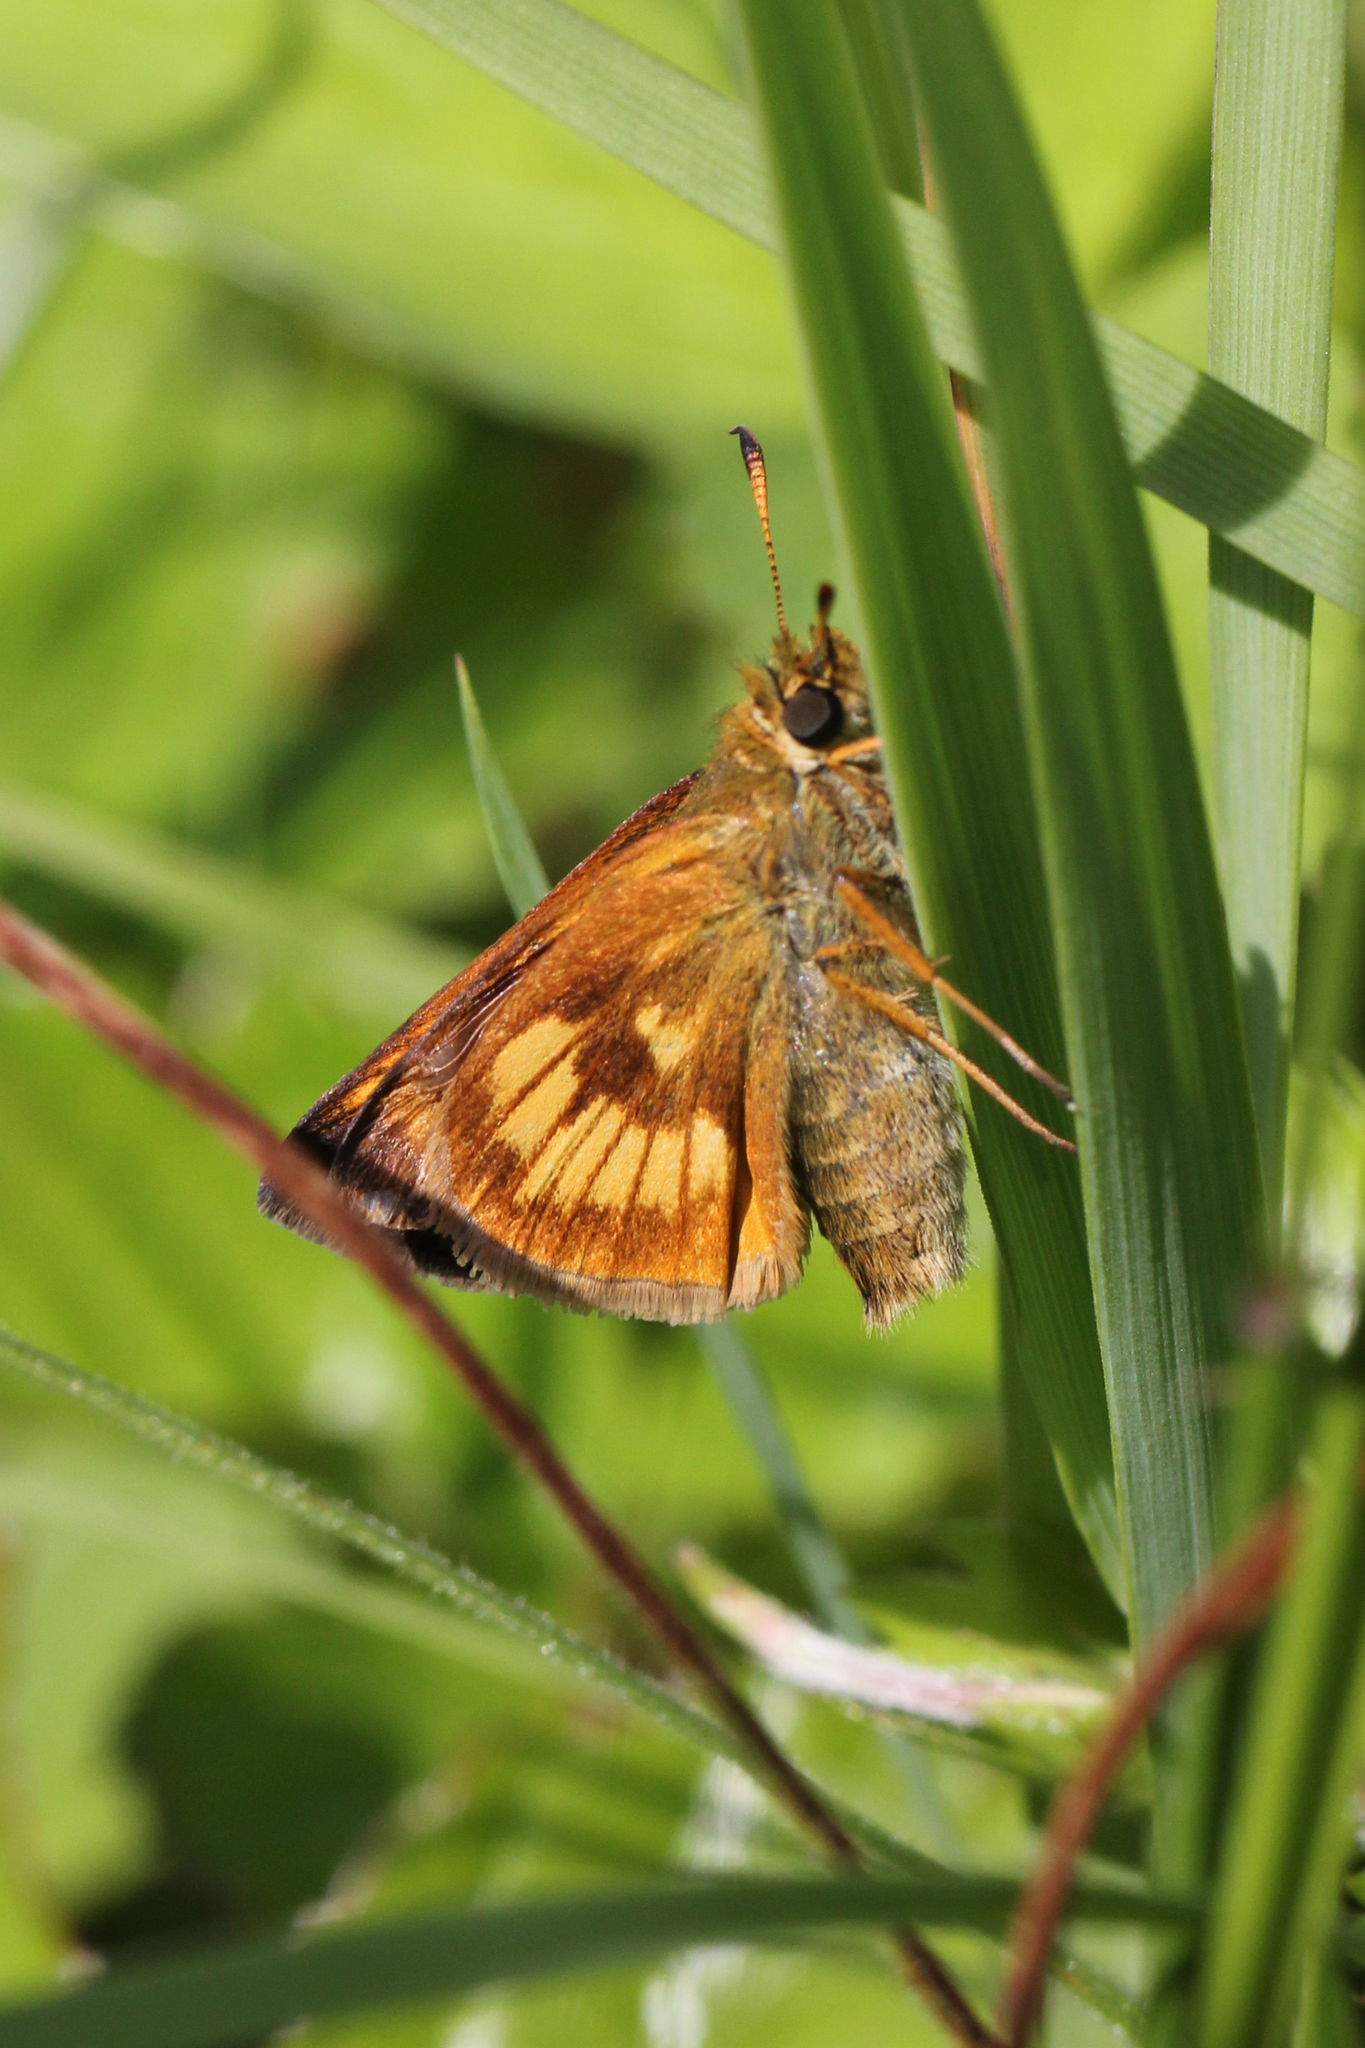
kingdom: Animalia
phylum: Arthropoda
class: Insecta
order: Lepidoptera
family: Hesperiidae
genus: Polites
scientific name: Polites mystic
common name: Long dash
